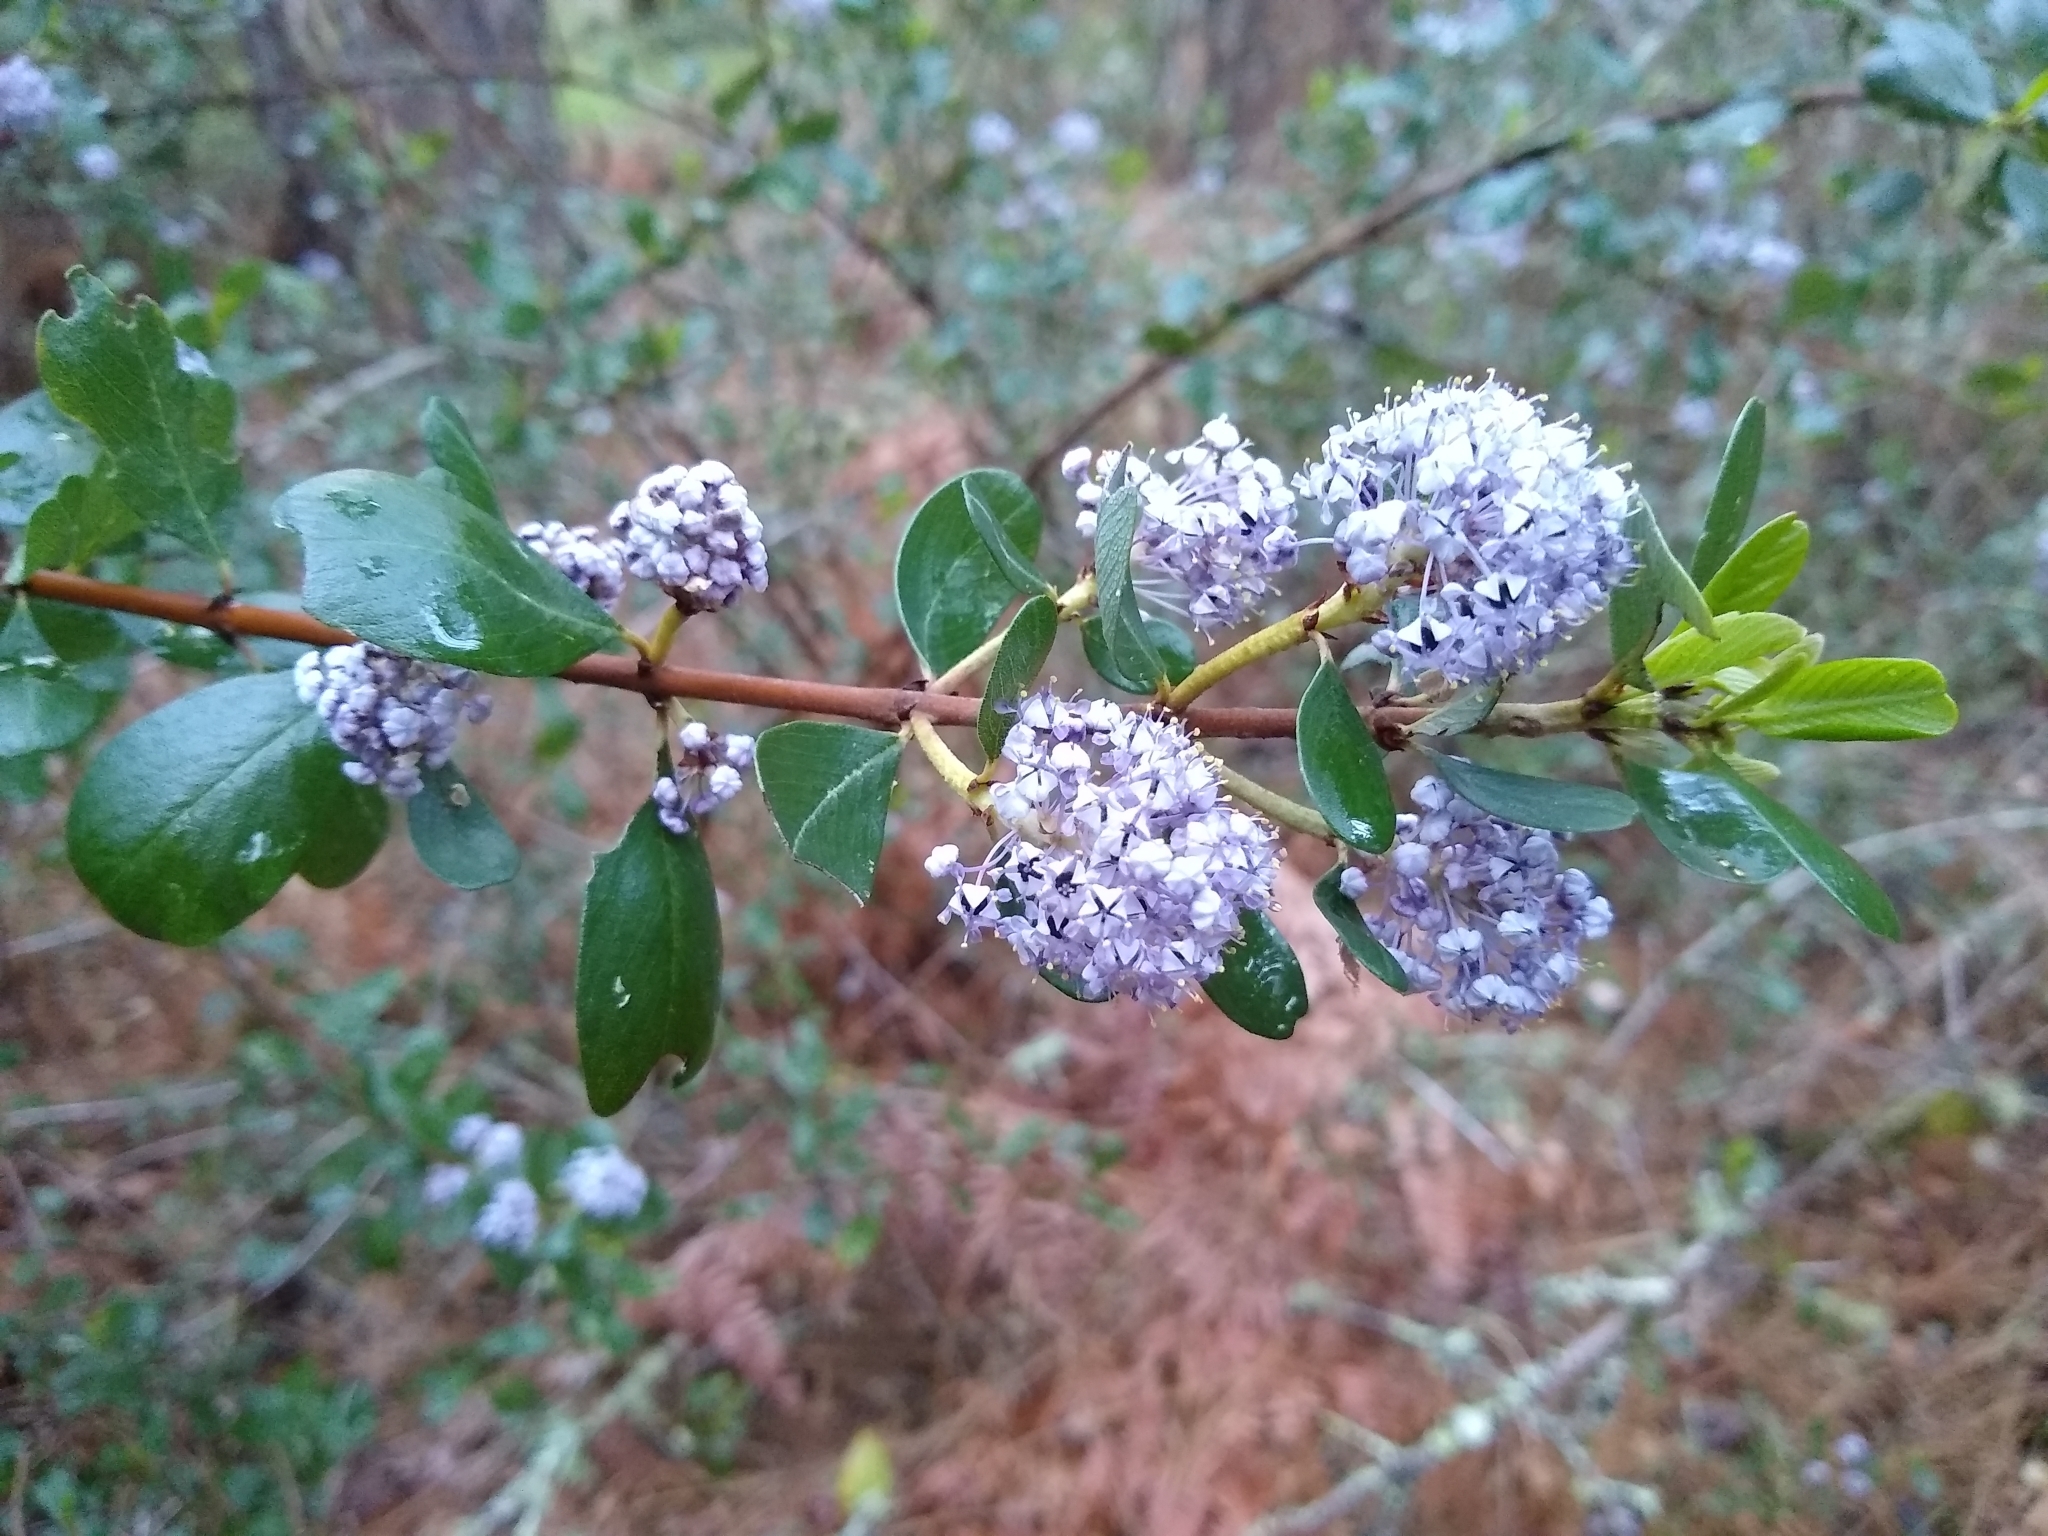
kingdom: Plantae
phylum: Tracheophyta
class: Magnoliopsida
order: Rosales
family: Rhamnaceae
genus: Ceanothus
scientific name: Ceanothus cuneatus
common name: Cuneate ceanothus
